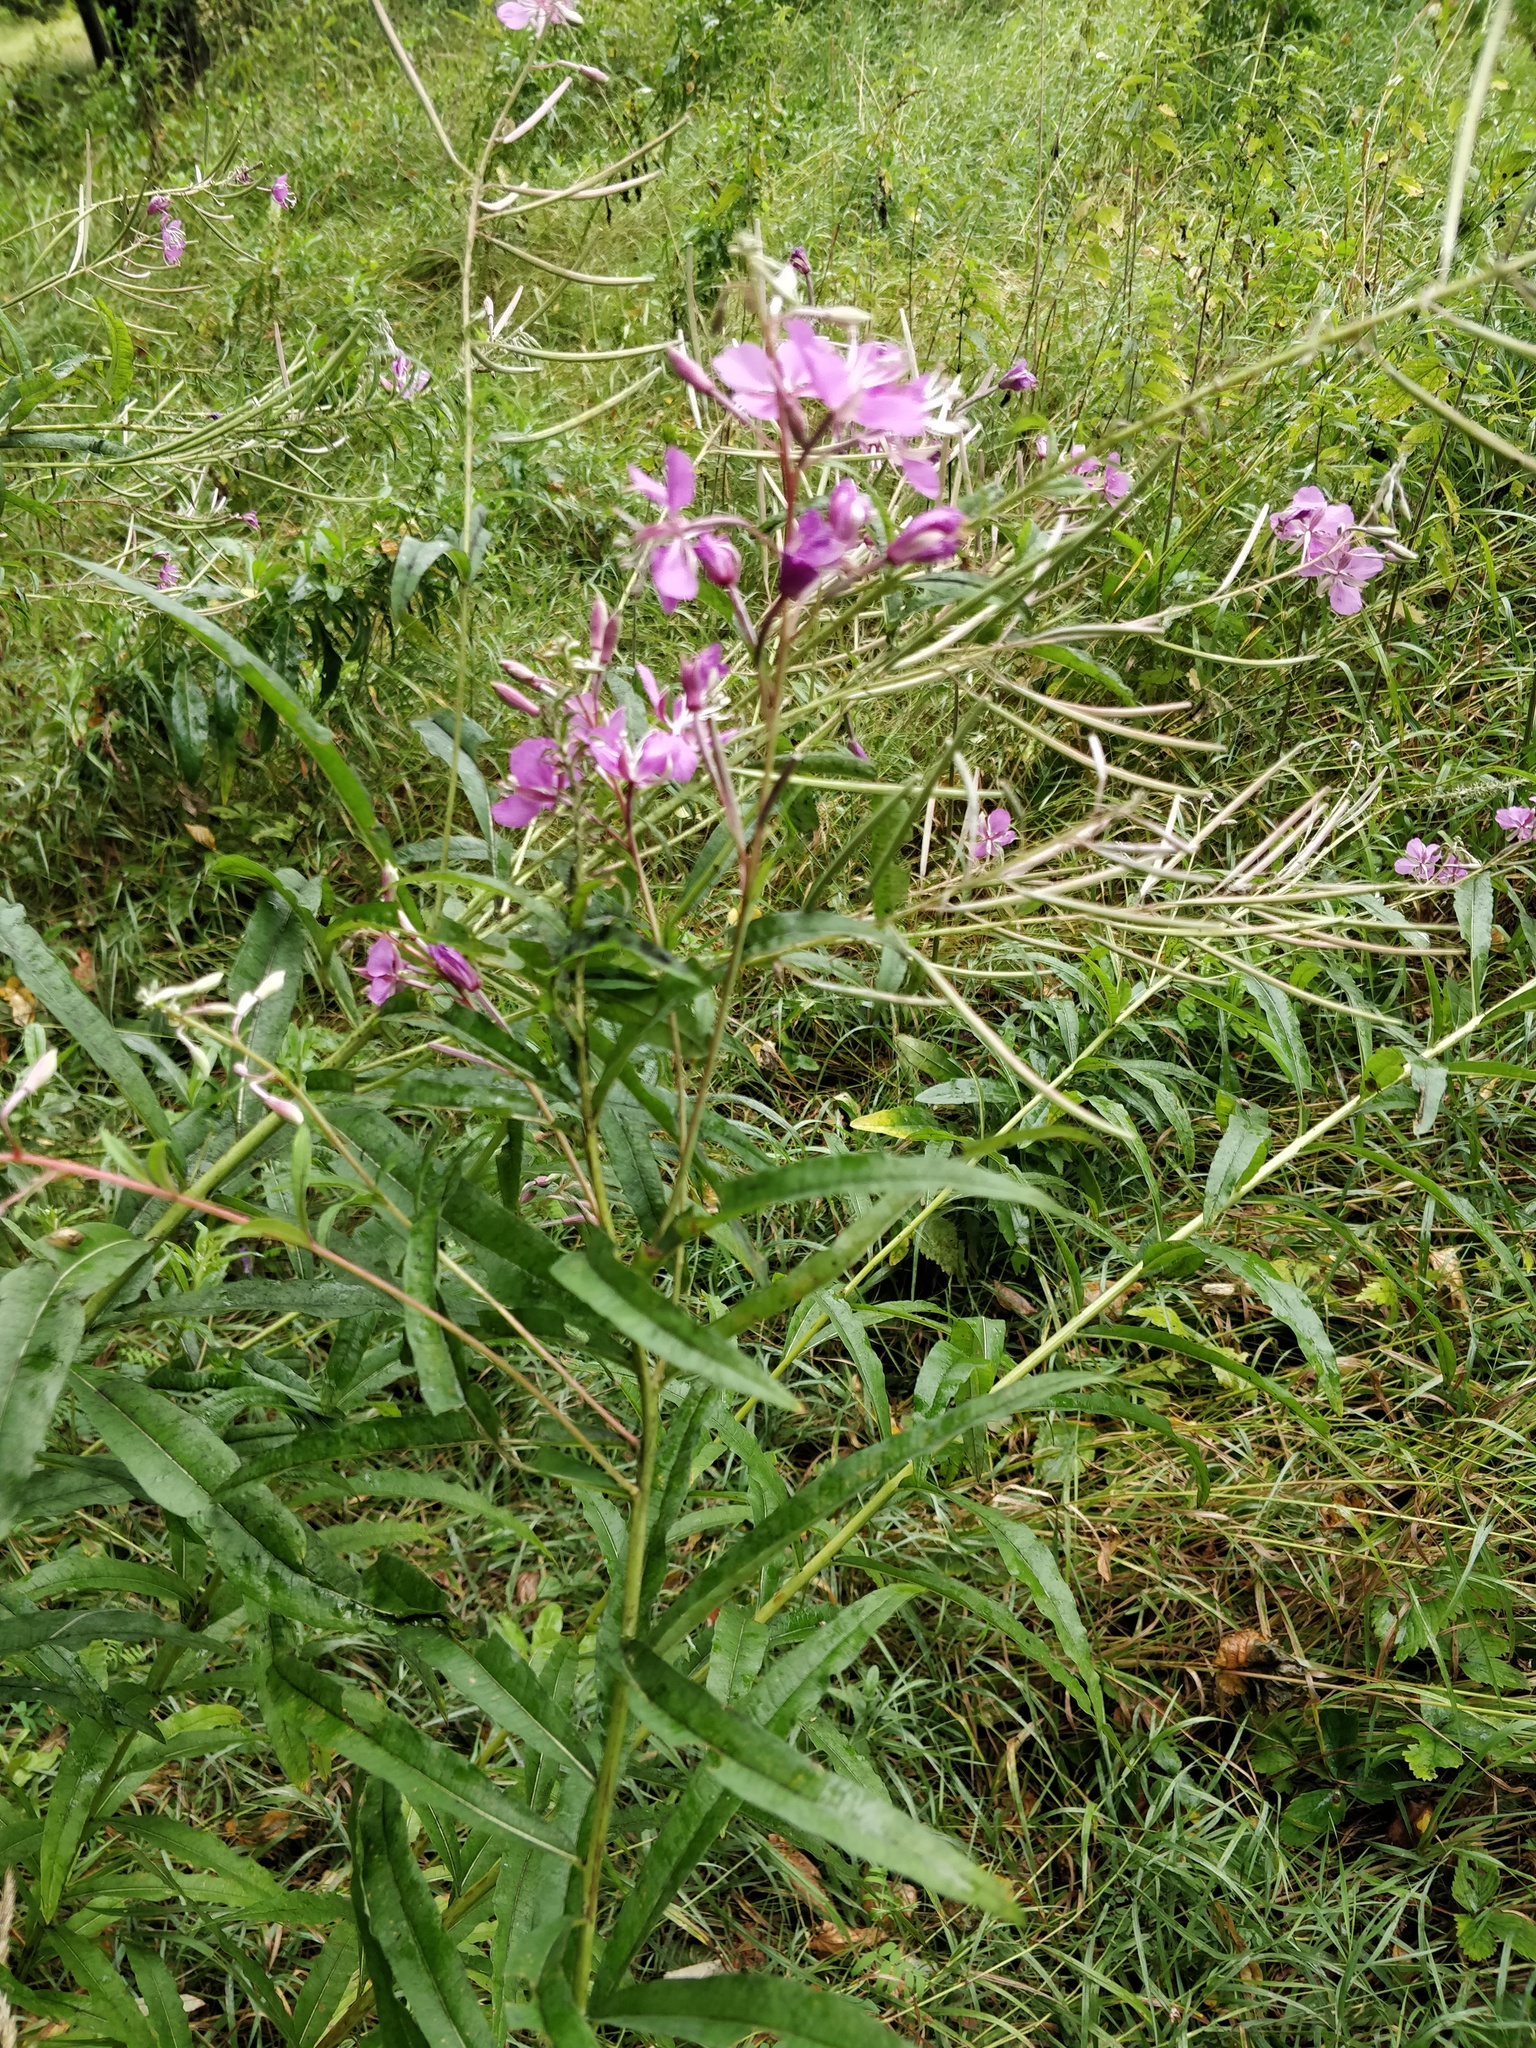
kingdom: Plantae
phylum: Tracheophyta
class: Magnoliopsida
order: Myrtales
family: Onagraceae
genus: Chamaenerion
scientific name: Chamaenerion angustifolium
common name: Fireweed
